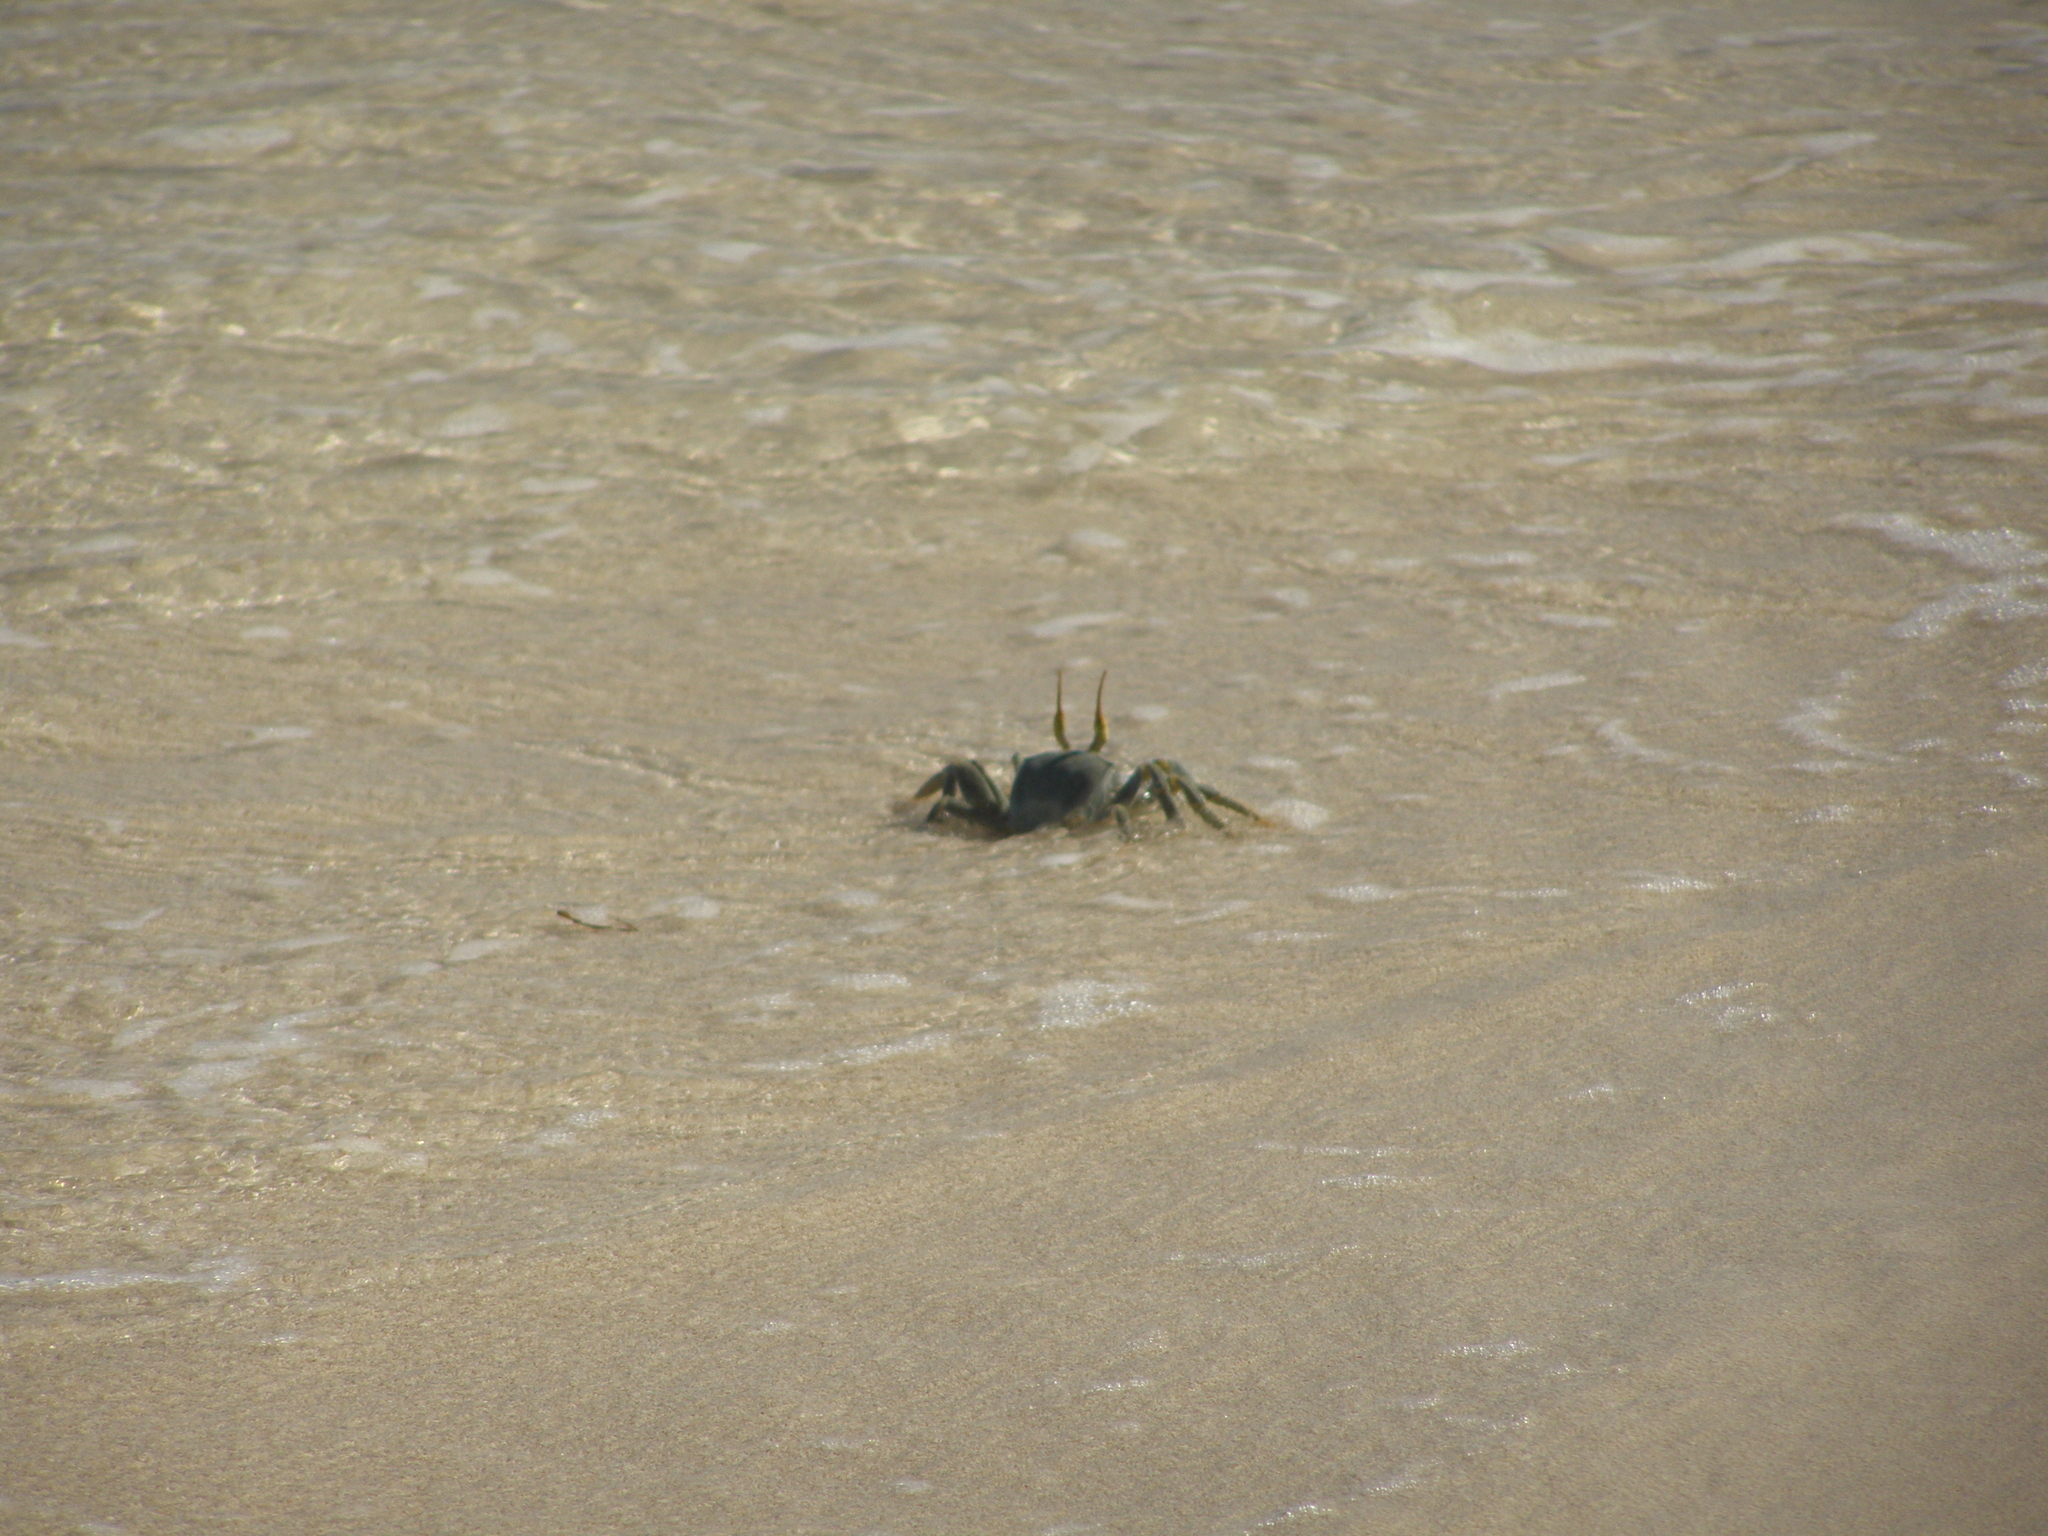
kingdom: Animalia
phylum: Arthropoda
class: Malacostraca
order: Decapoda
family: Ocypodidae
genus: Ocypode
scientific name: Ocypode ceratophthalmus
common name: Indo-pacific ghost crab
